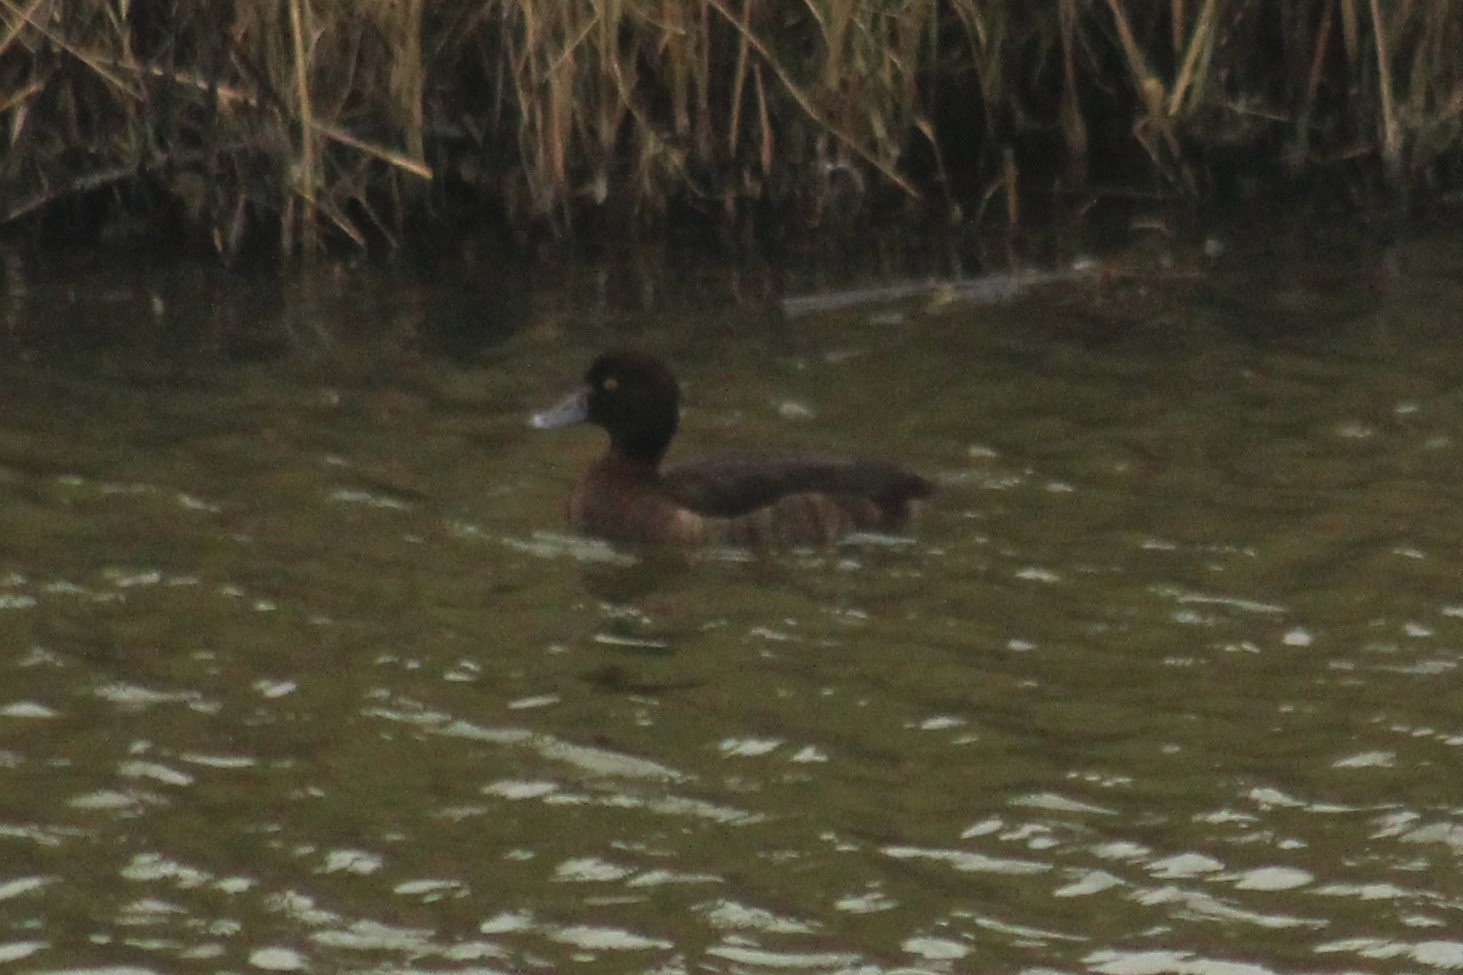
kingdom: Animalia
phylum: Chordata
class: Aves
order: Anseriformes
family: Anatidae
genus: Aythya
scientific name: Aythya fuligula
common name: Tufted duck
